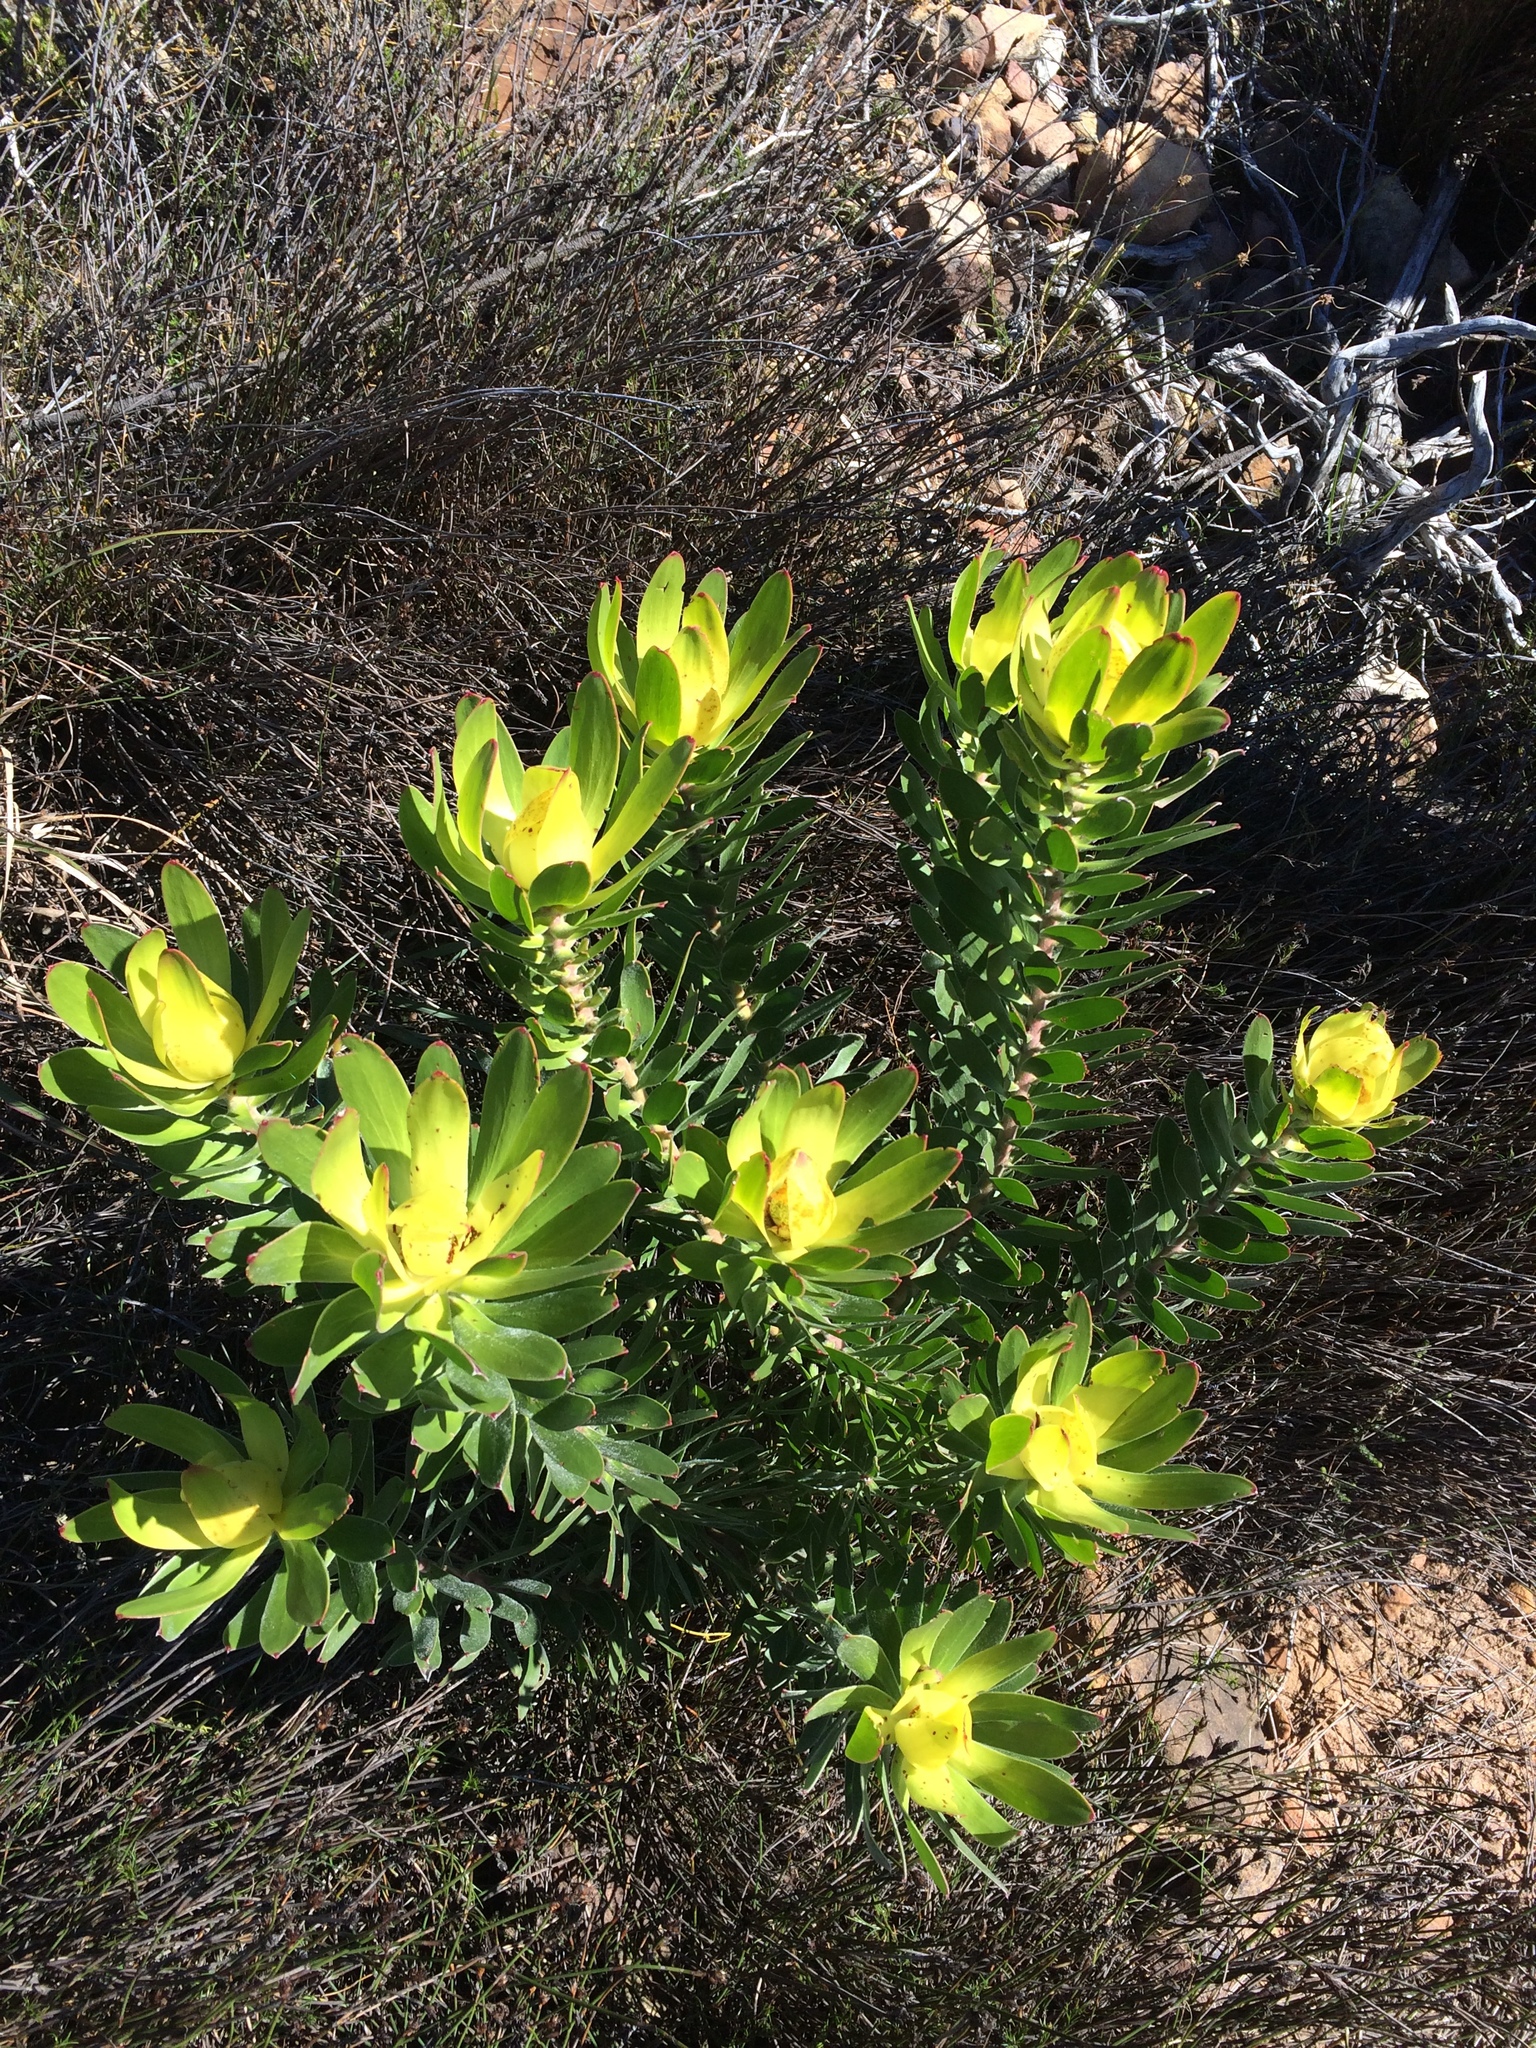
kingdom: Plantae
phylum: Tracheophyta
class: Magnoliopsida
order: Proteales
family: Proteaceae
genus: Leucadendron
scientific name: Leucadendron laureolum
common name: Golden sunshinebush
